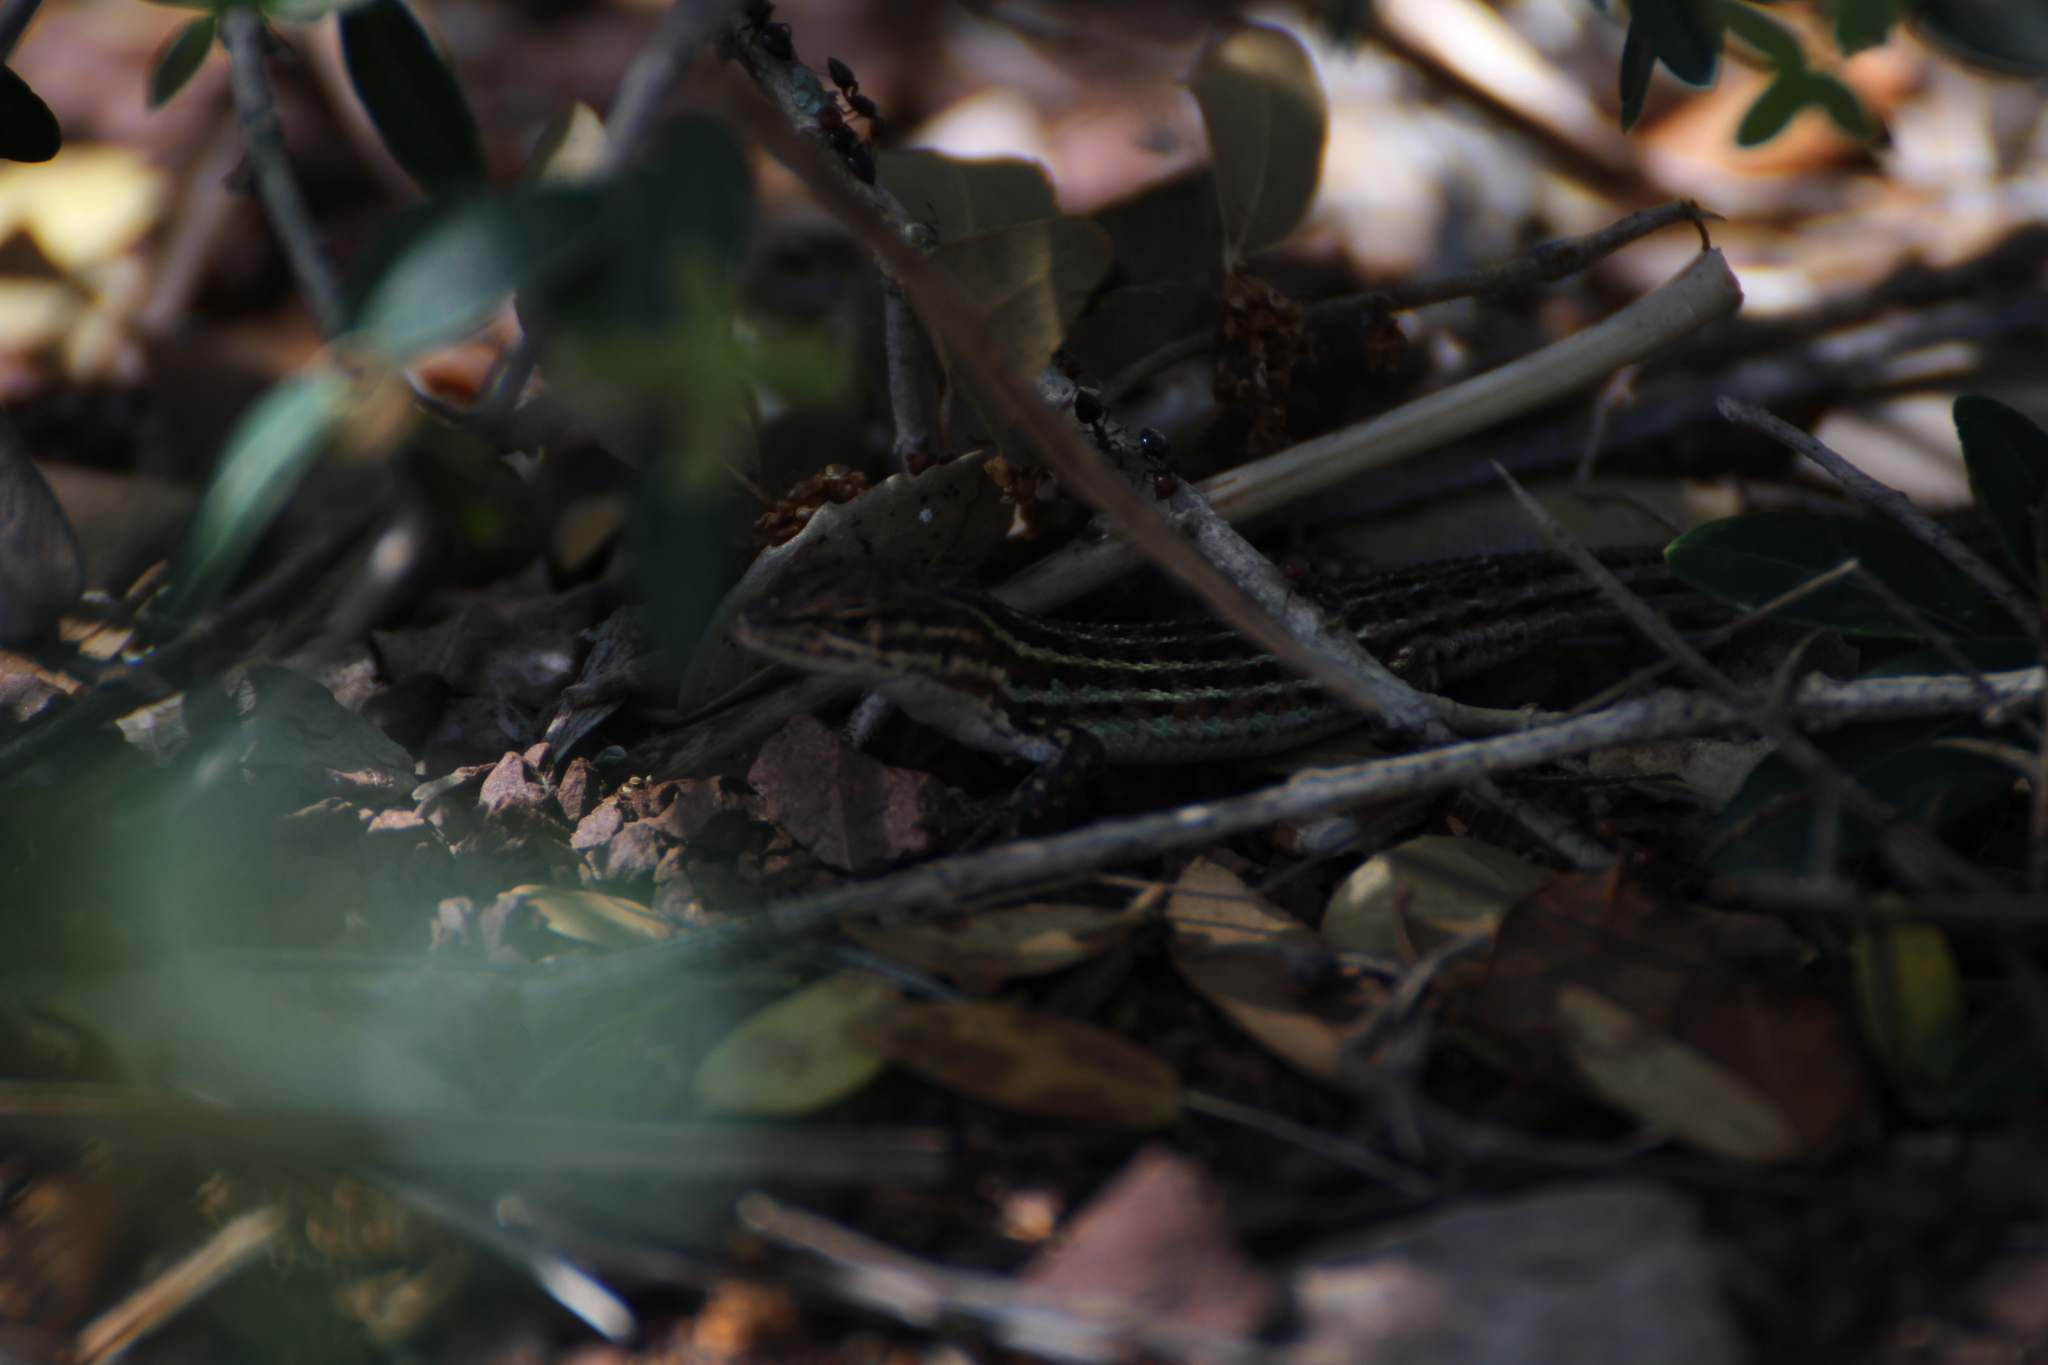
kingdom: Animalia
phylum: Chordata
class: Squamata
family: Lacertidae
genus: Psammodromus
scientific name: Psammodromus edwarsianus
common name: East iberian psammodromus
